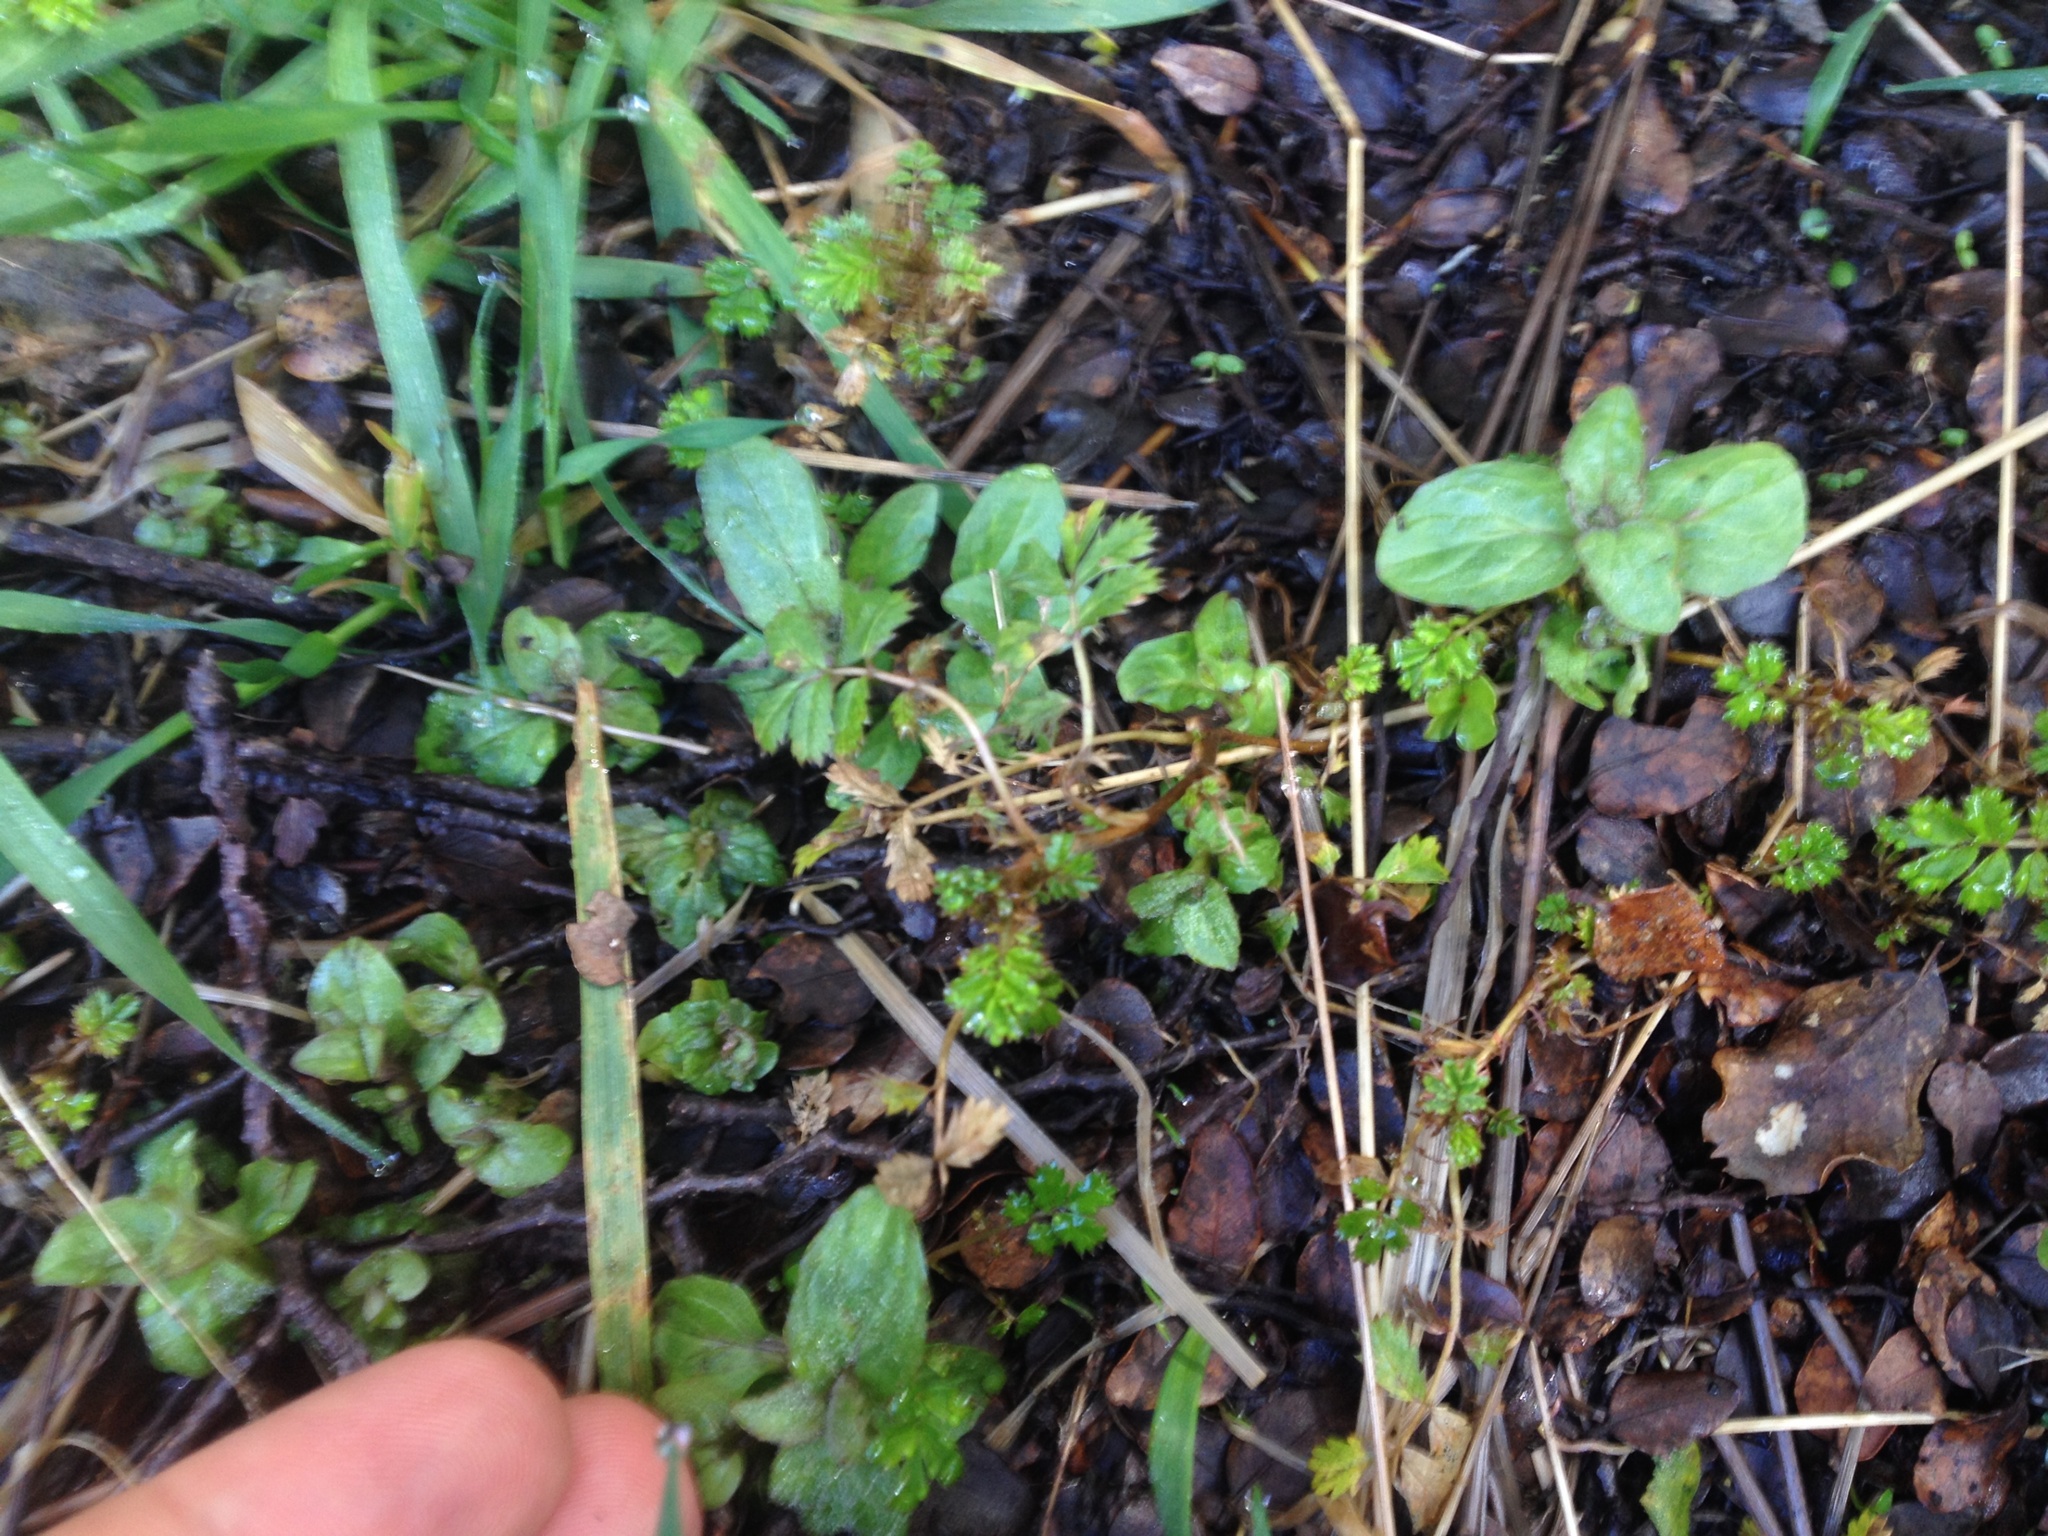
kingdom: Plantae
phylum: Tracheophyta
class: Magnoliopsida
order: Lamiales
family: Lamiaceae
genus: Prunella
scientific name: Prunella vulgaris
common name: Heal-all
